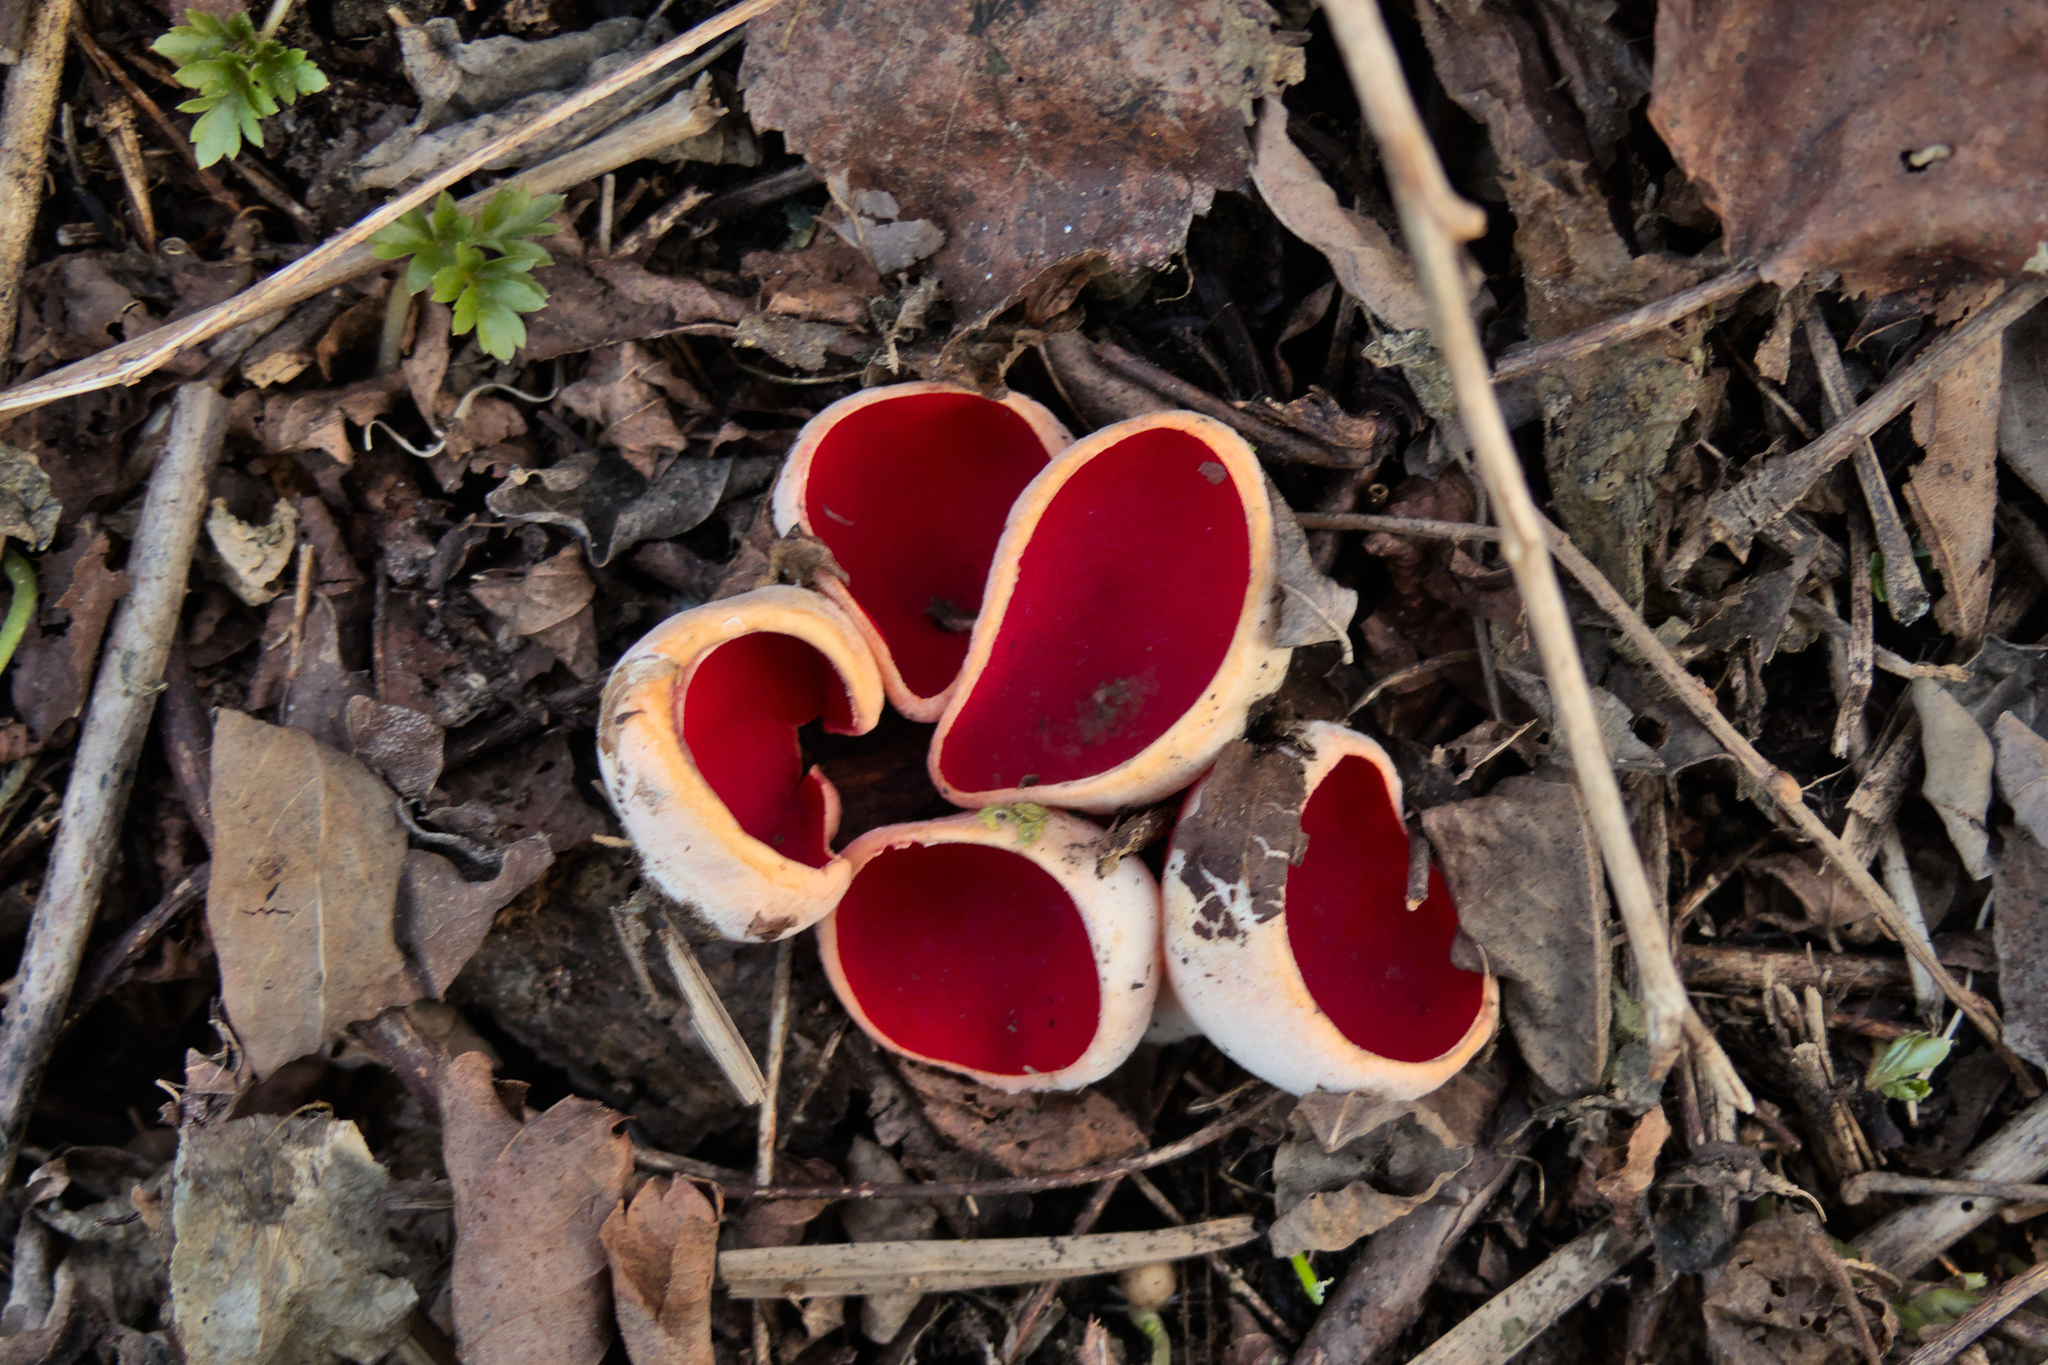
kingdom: Fungi
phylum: Ascomycota
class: Pezizomycetes
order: Pezizales
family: Sarcoscyphaceae
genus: Sarcoscypha
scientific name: Sarcoscypha
